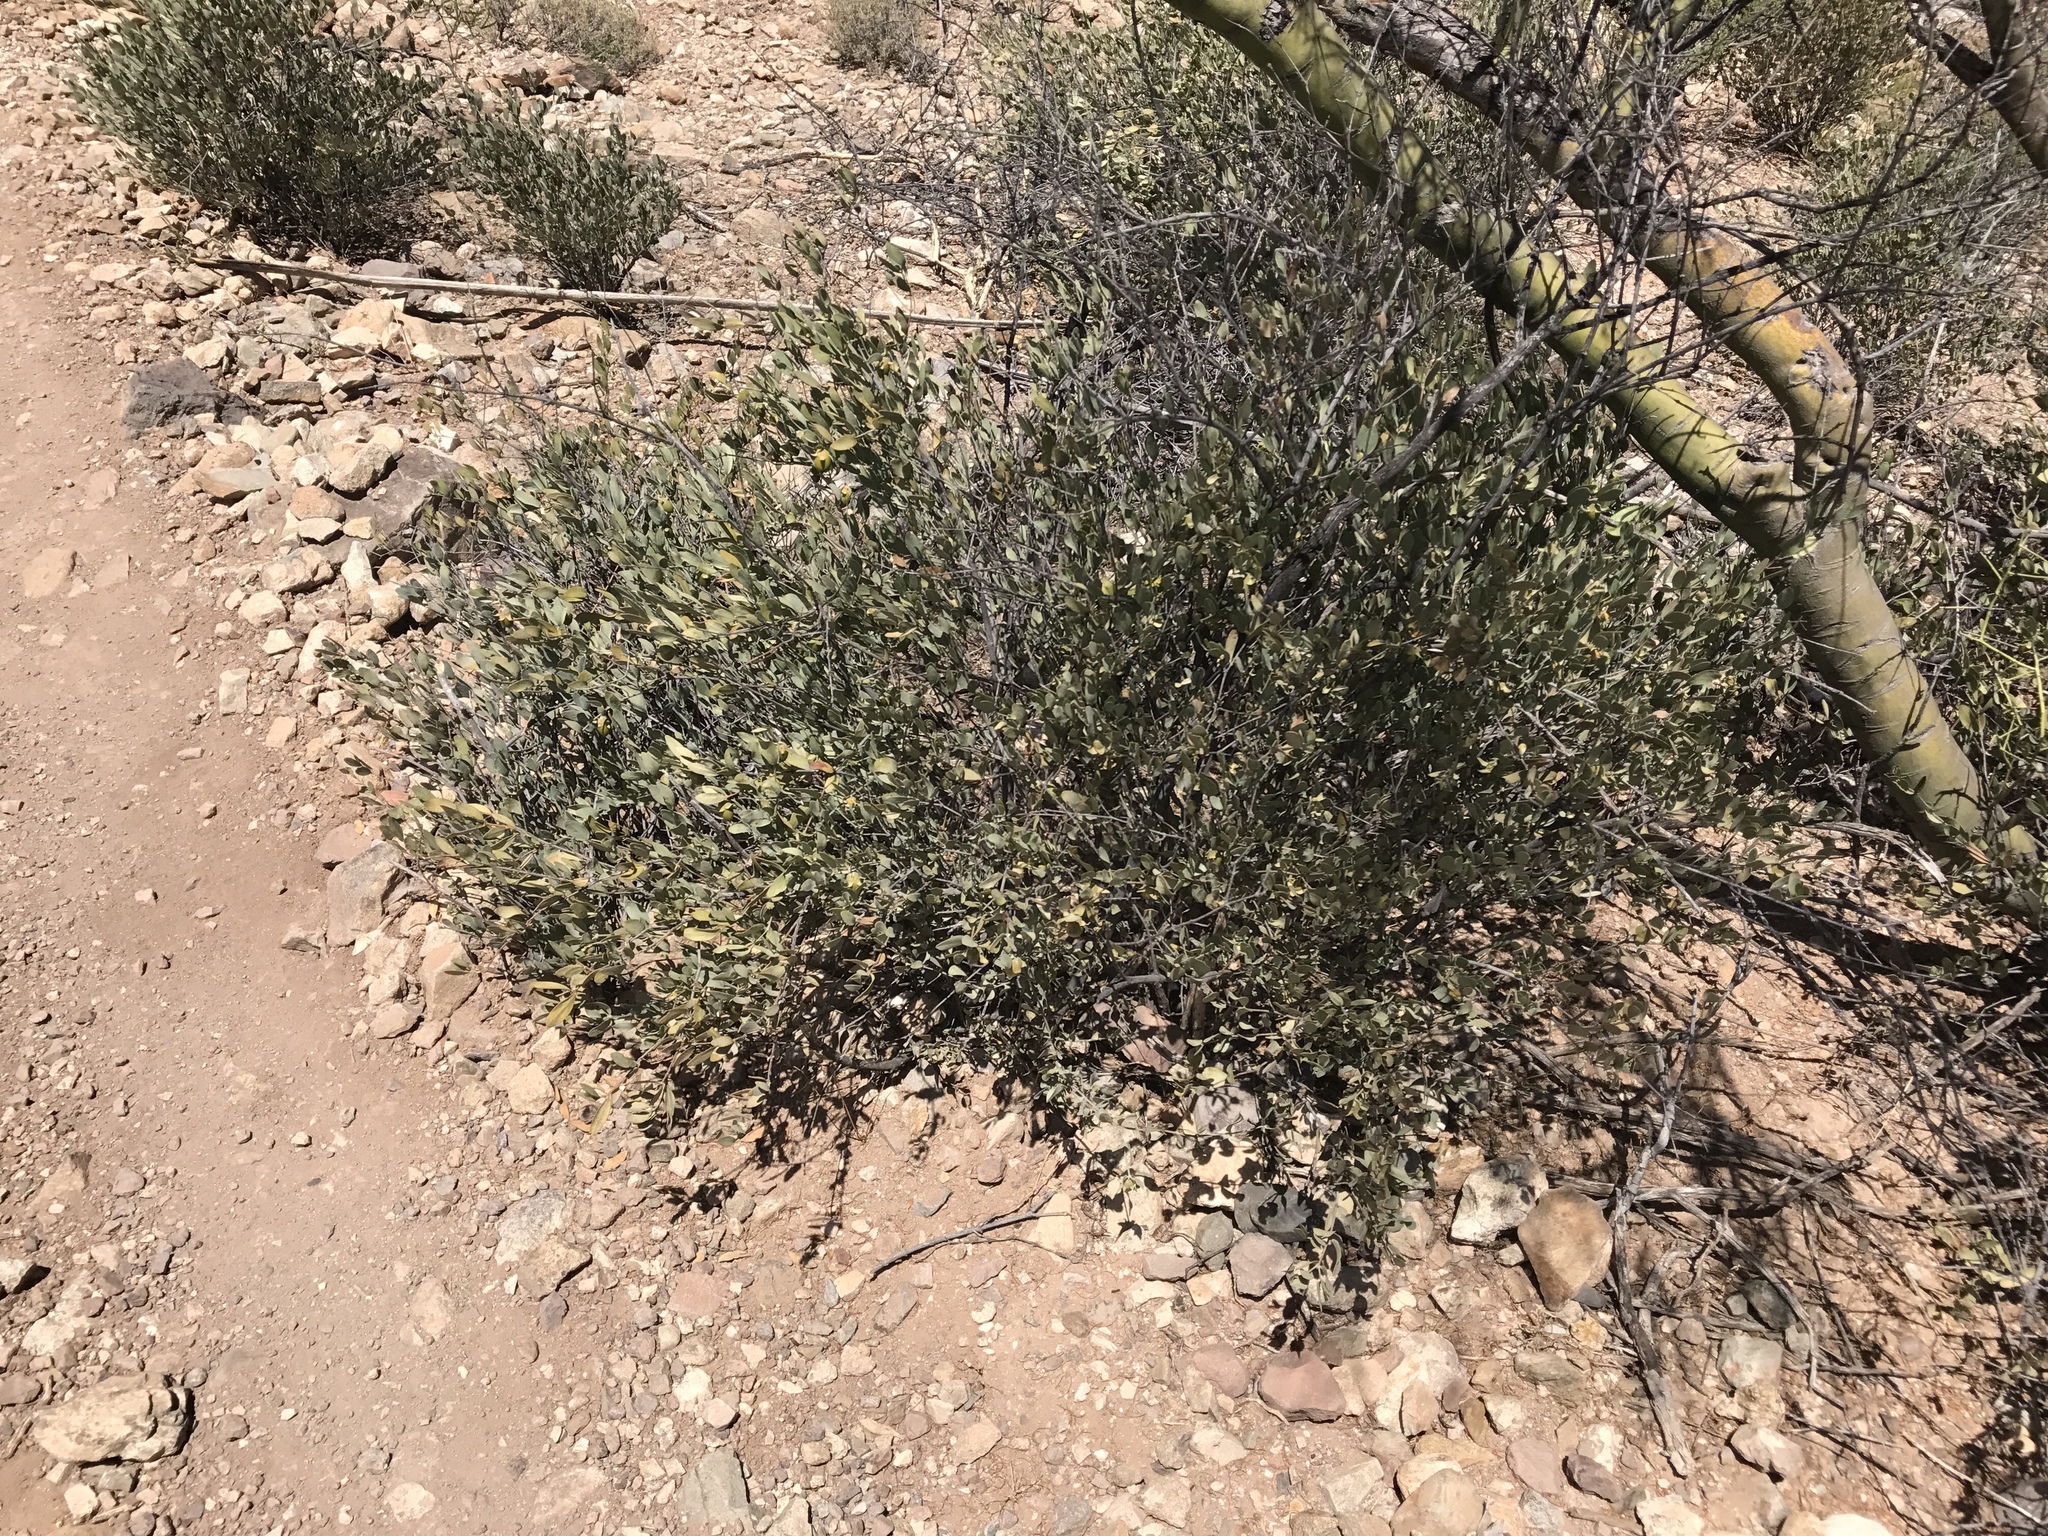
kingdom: Plantae
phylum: Tracheophyta
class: Magnoliopsida
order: Caryophyllales
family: Simmondsiaceae
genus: Simmondsia
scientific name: Simmondsia chinensis
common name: Jojoba
